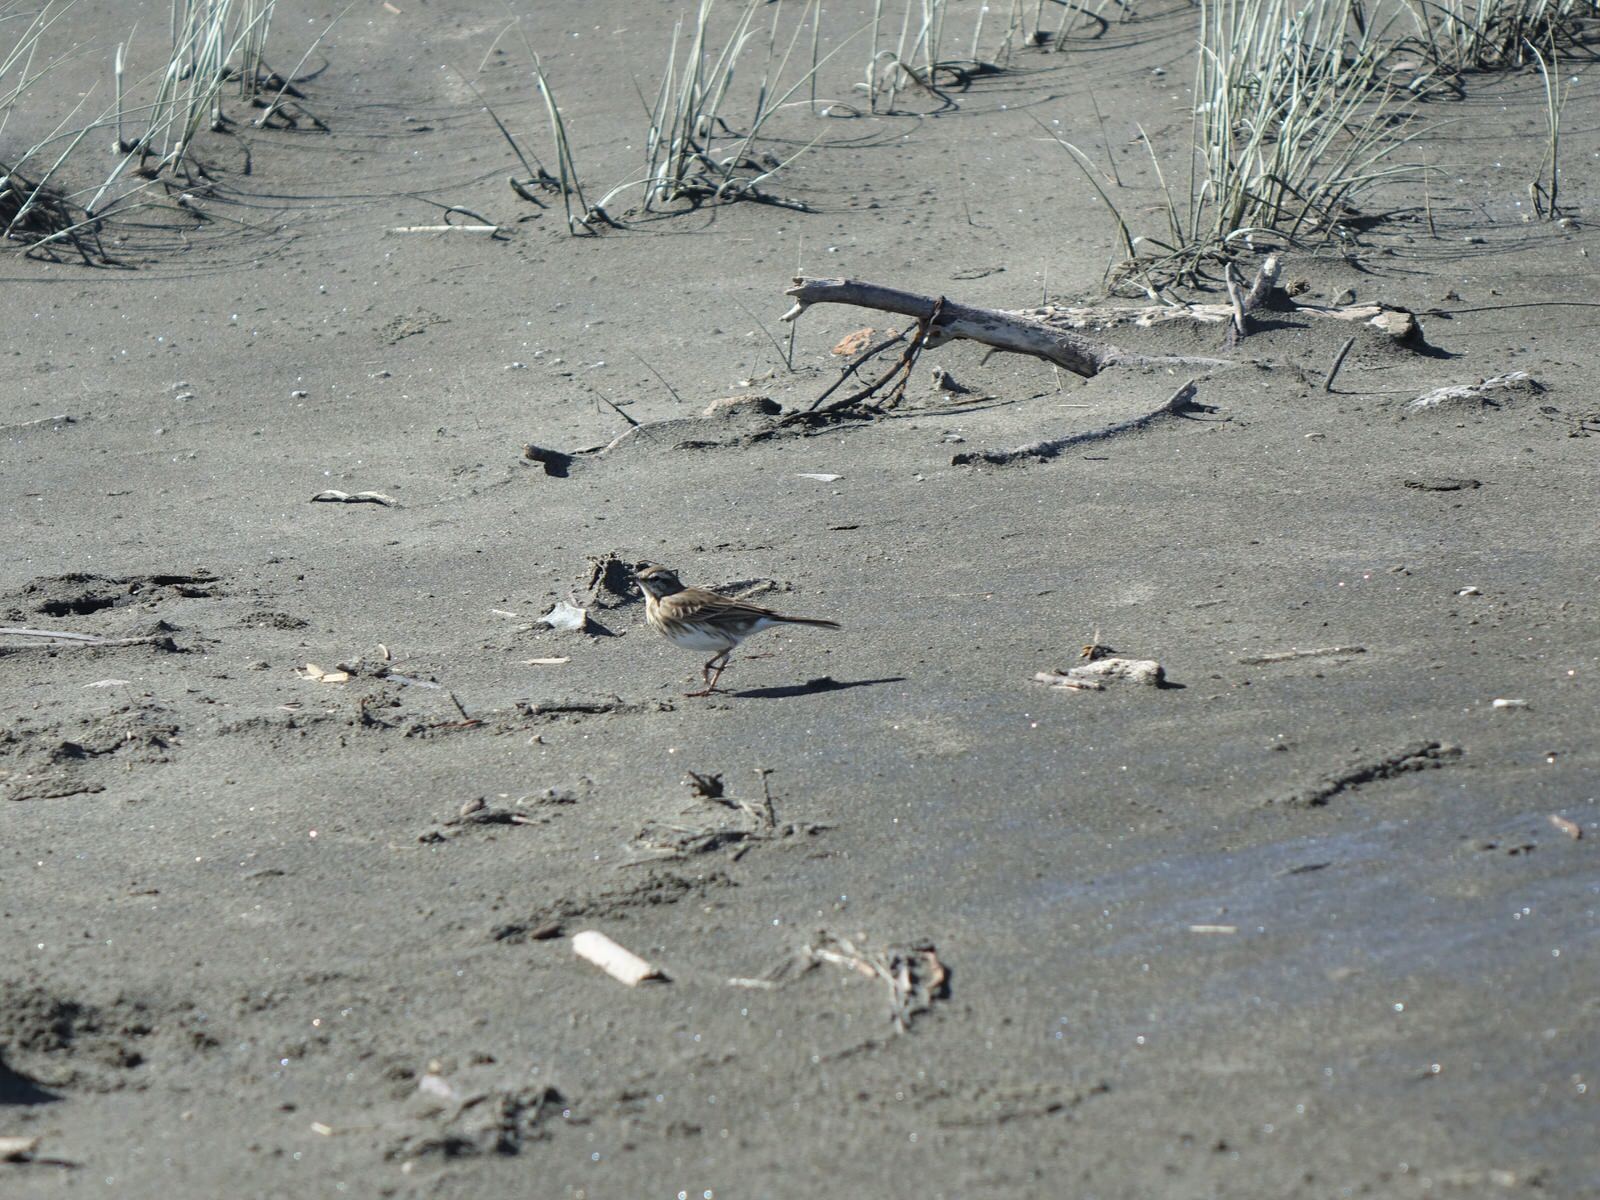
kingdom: Animalia
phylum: Chordata
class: Aves
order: Passeriformes
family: Motacillidae
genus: Anthus
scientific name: Anthus novaeseelandiae
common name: New zealand pipit
